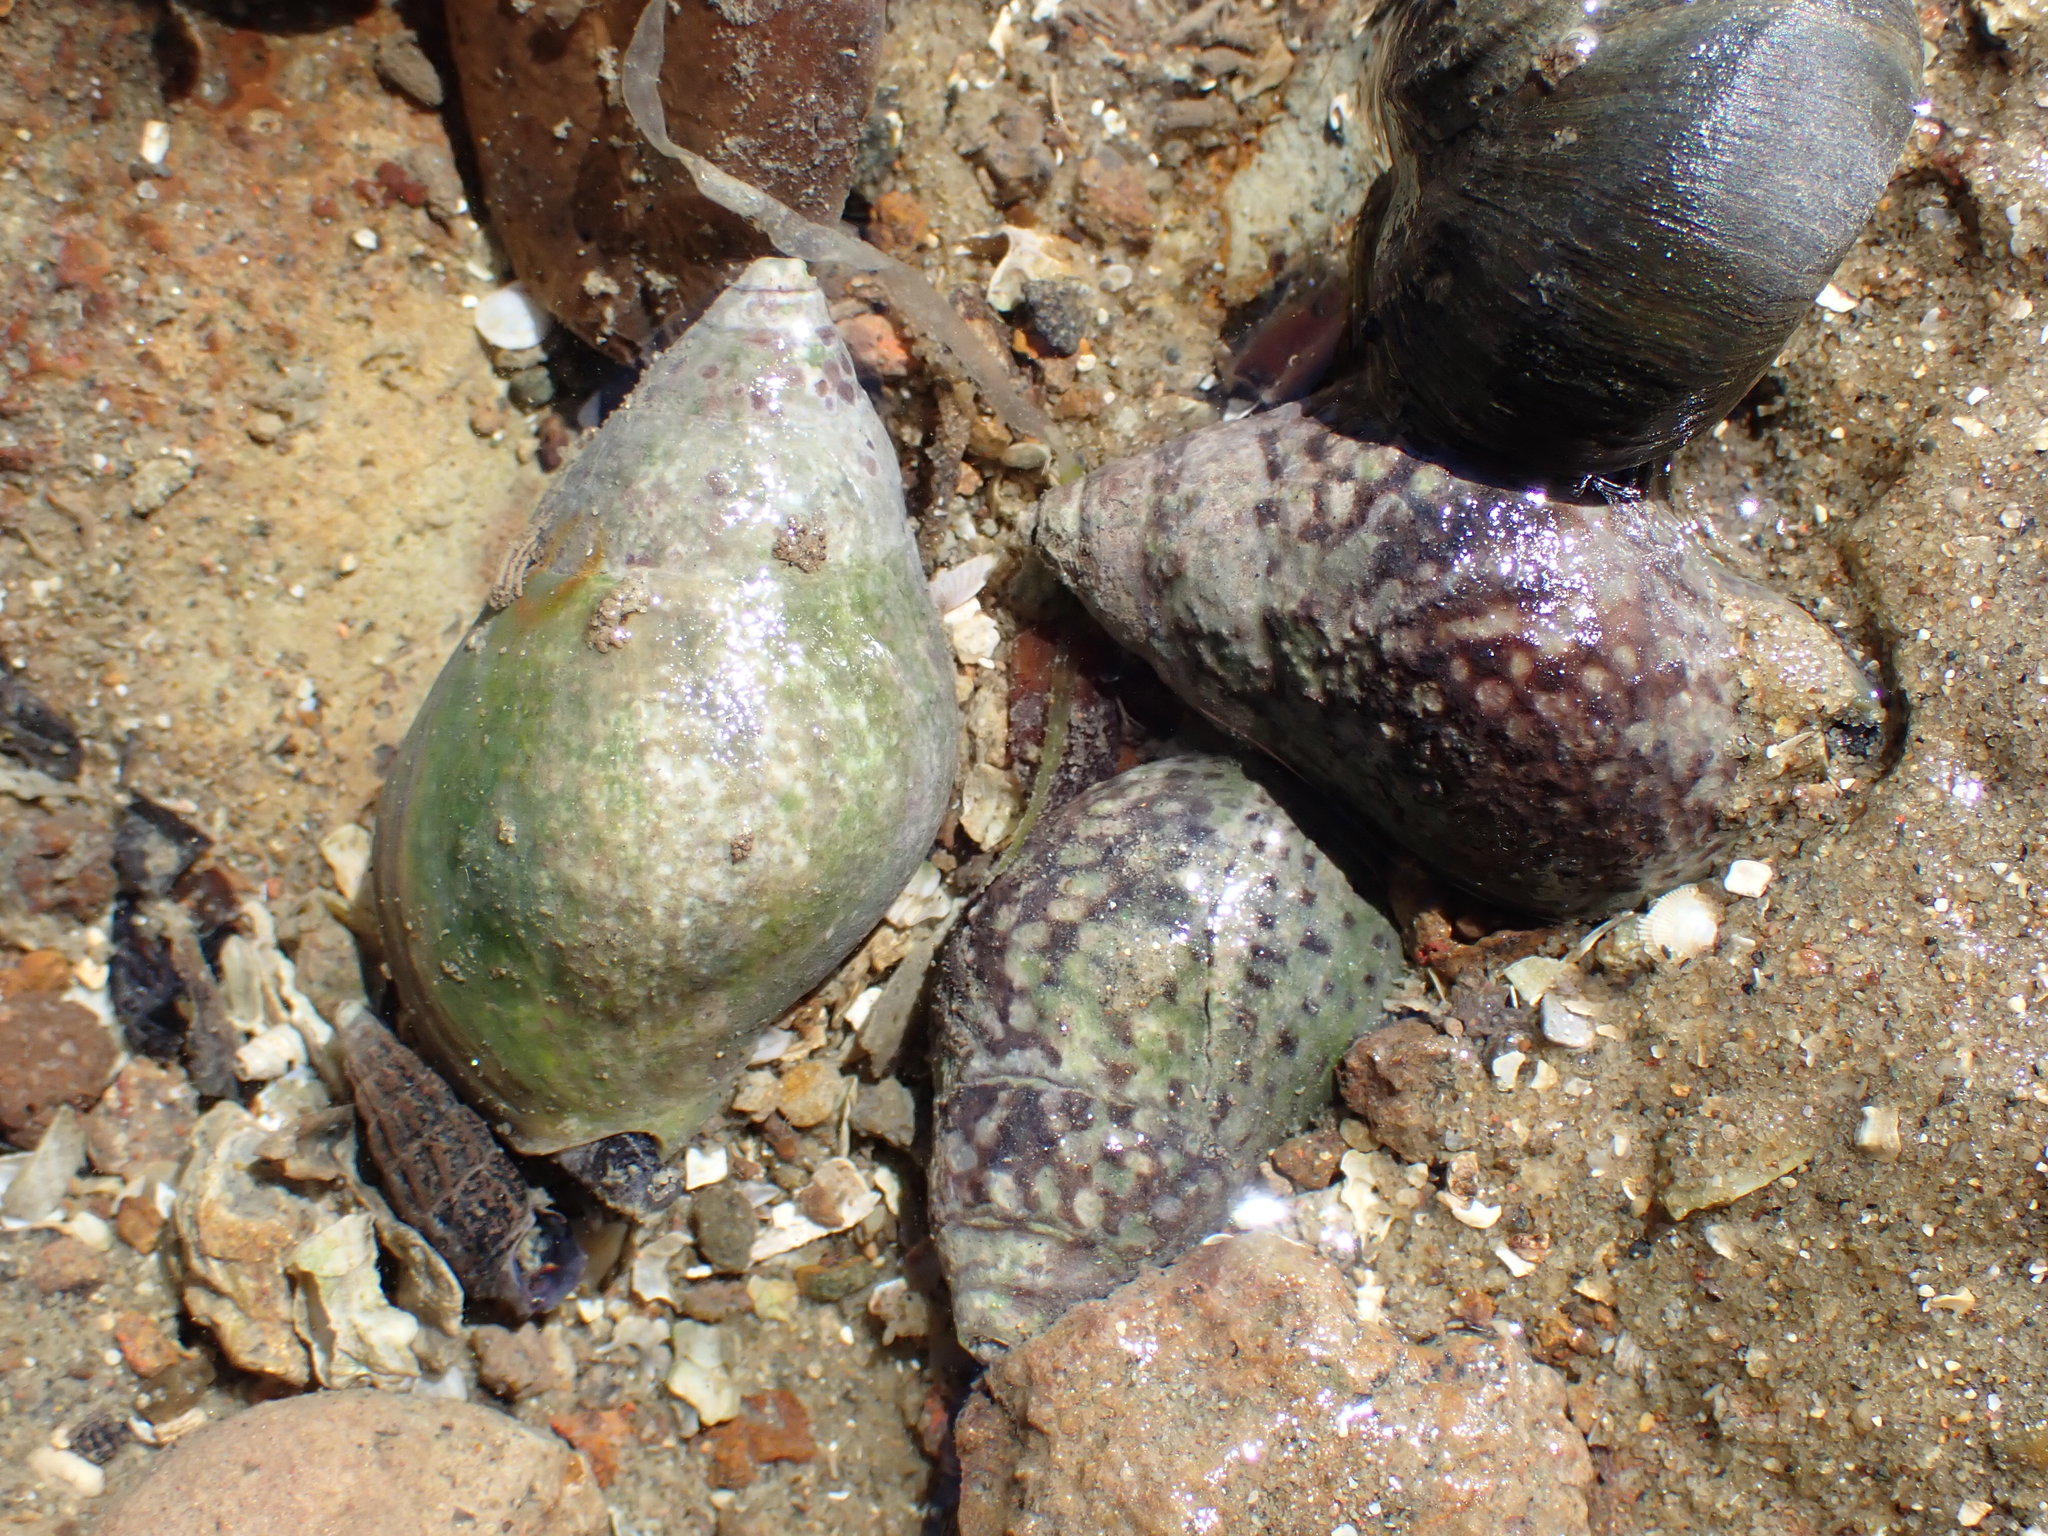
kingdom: Animalia
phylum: Mollusca
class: Gastropoda
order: Neogastropoda
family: Cominellidae
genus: Cominella
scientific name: Cominella maculosa
